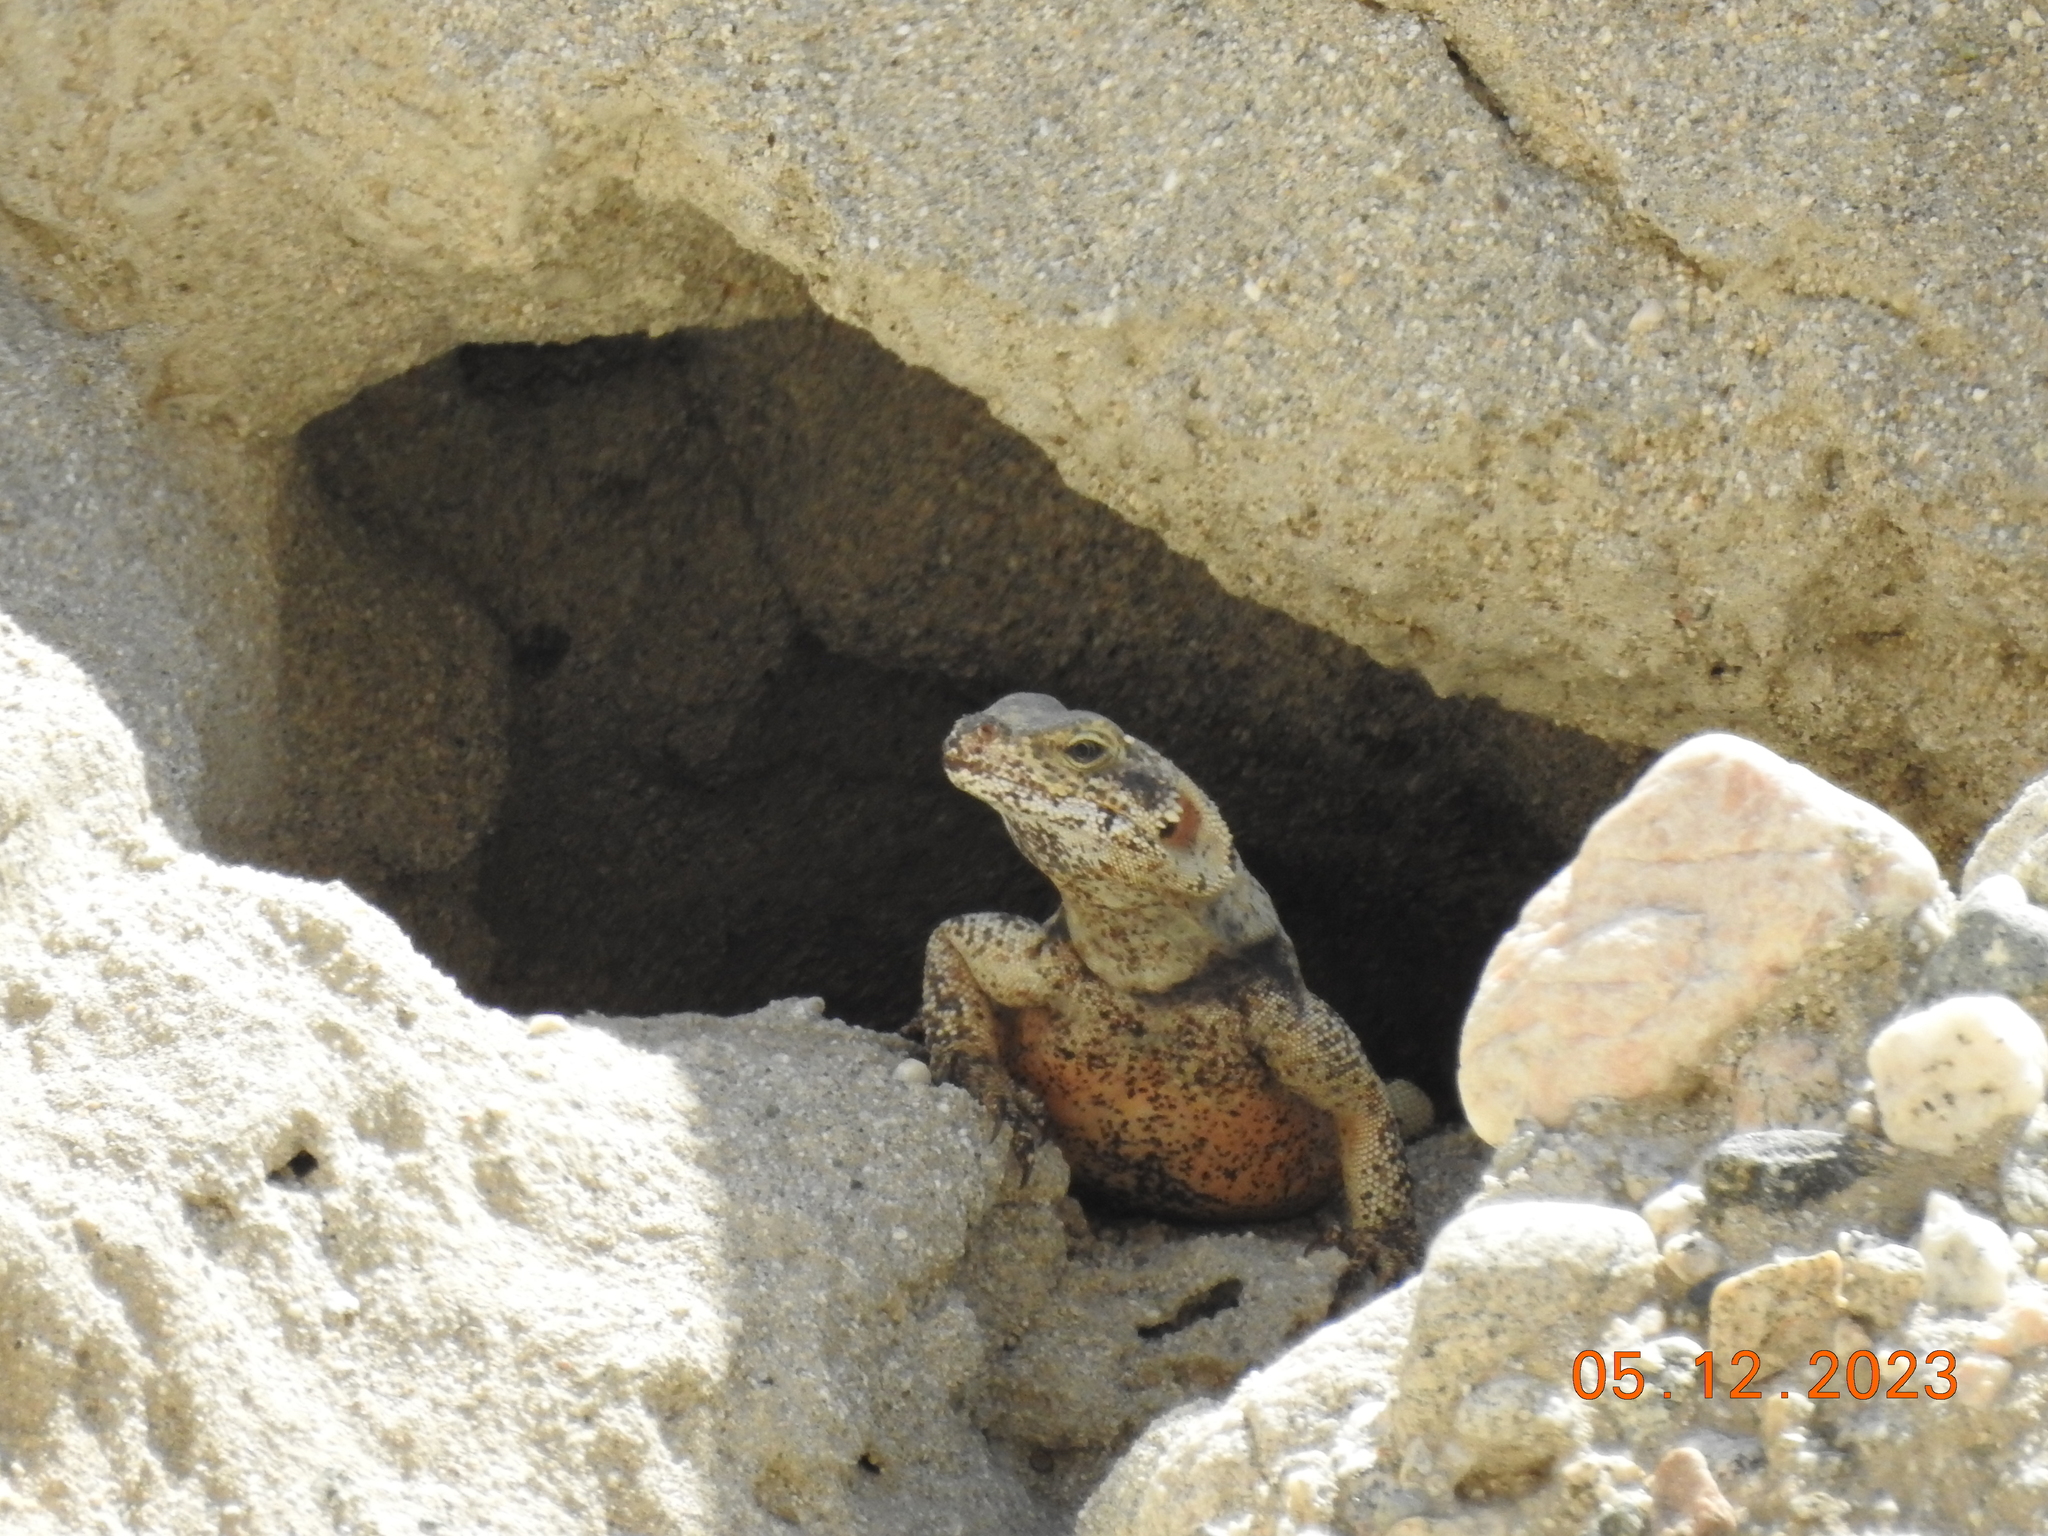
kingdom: Animalia
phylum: Chordata
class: Squamata
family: Iguanidae
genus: Sauromalus
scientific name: Sauromalus ater
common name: Northern chuckwalla
